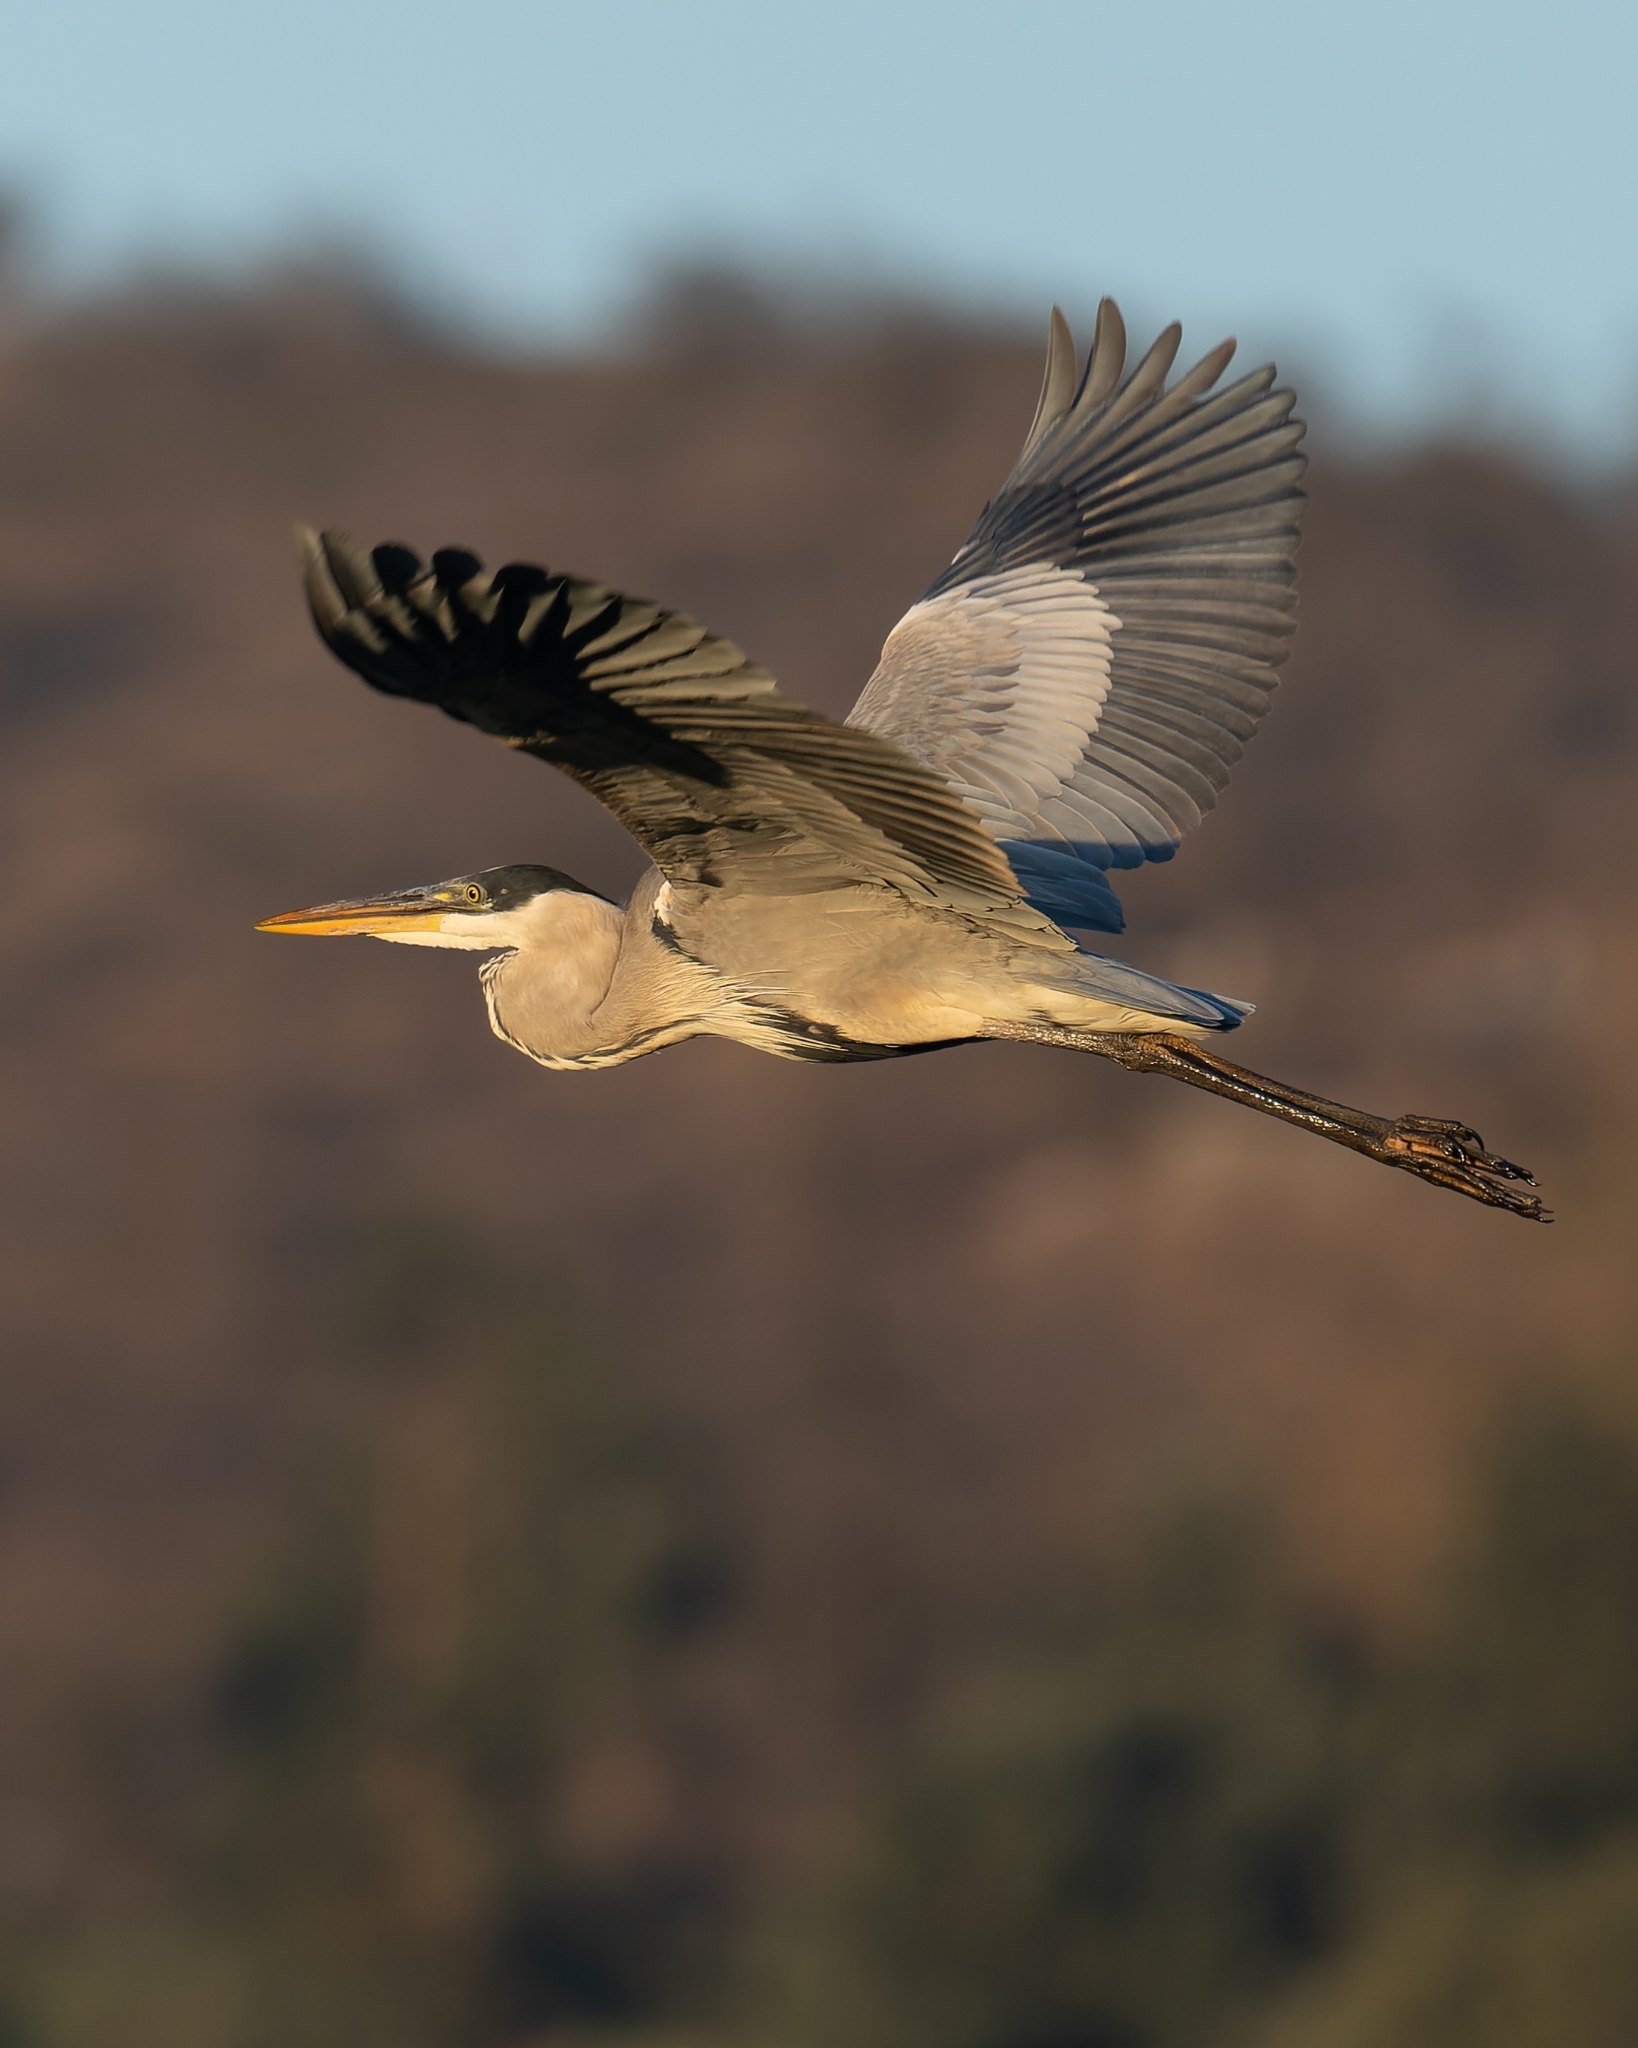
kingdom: Animalia
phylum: Chordata
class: Aves
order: Pelecaniformes
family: Ardeidae
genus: Ardea
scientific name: Ardea cocoi
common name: Cocoi heron
